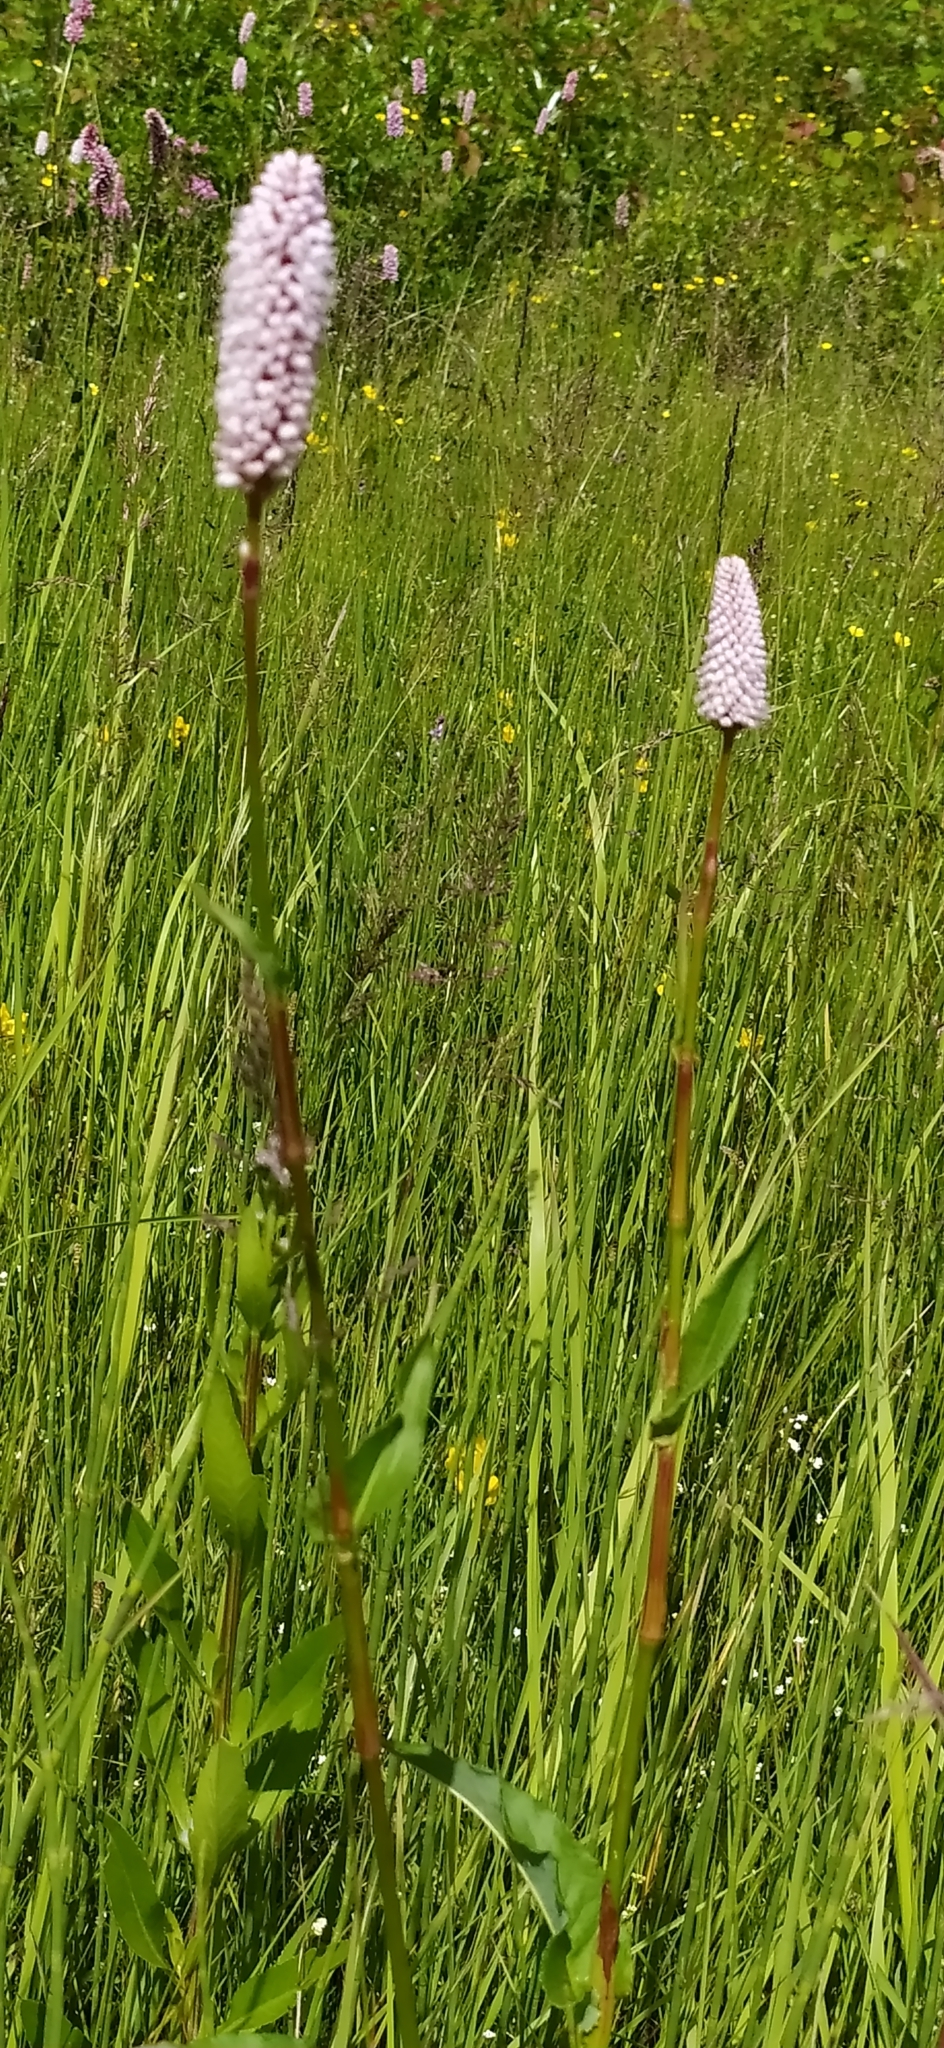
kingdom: Plantae
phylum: Tracheophyta
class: Magnoliopsida
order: Caryophyllales
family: Polygonaceae
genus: Bistorta
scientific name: Bistorta officinalis
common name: Common bistort
